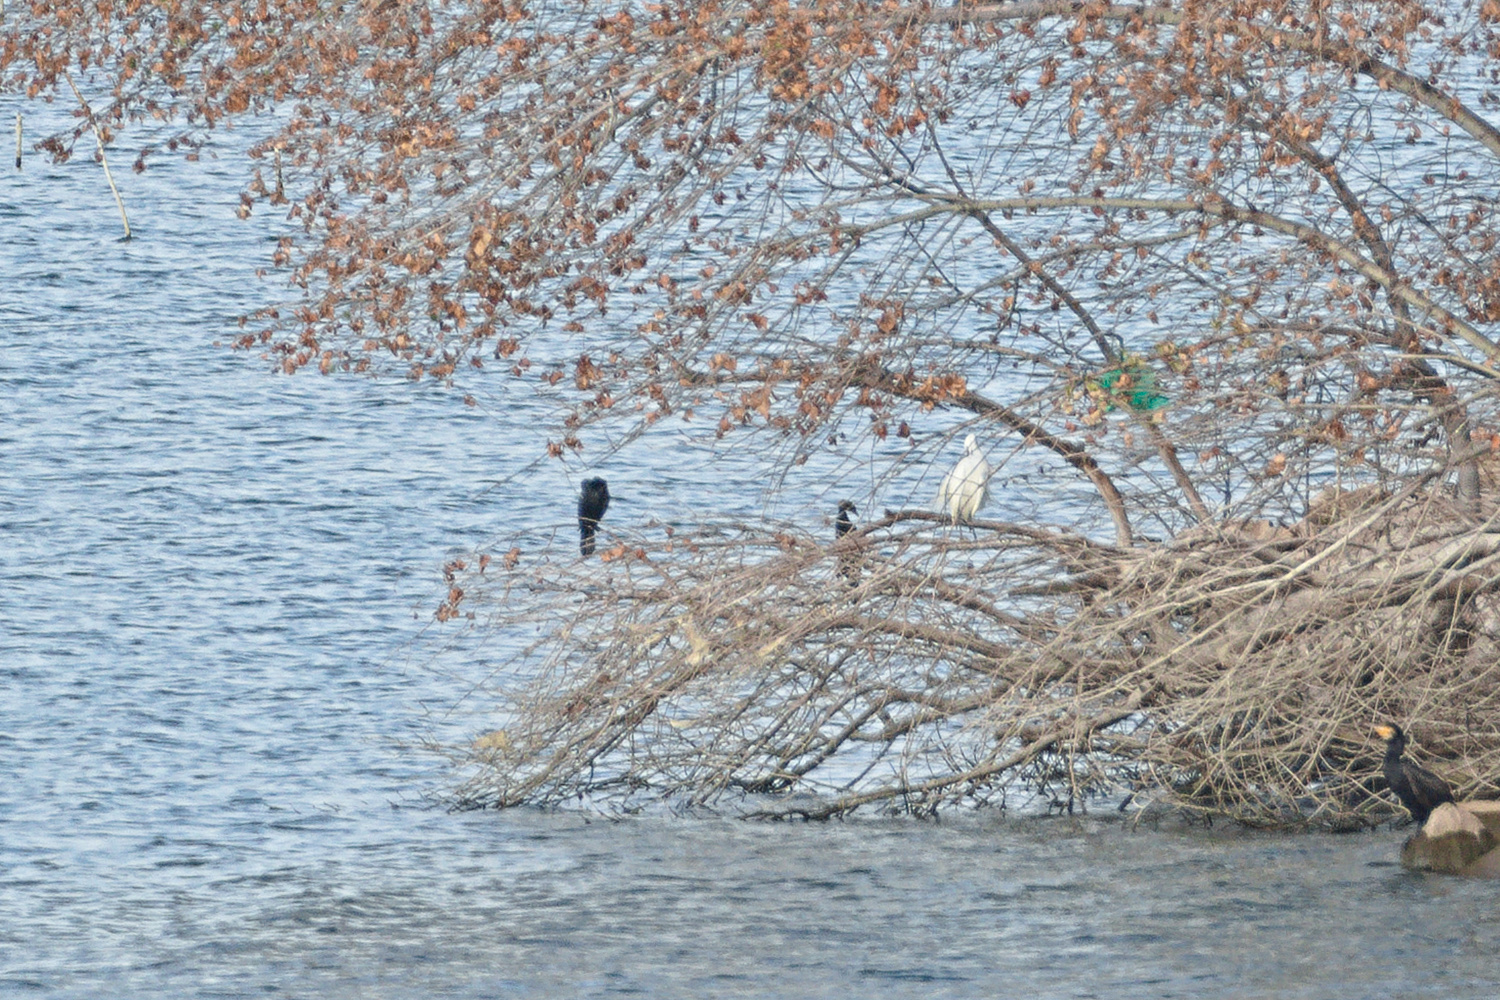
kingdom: Animalia
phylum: Chordata
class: Aves
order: Suliformes
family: Phalacrocoracidae
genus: Phalacrocorax
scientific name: Phalacrocorax carbo
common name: Great cormorant
